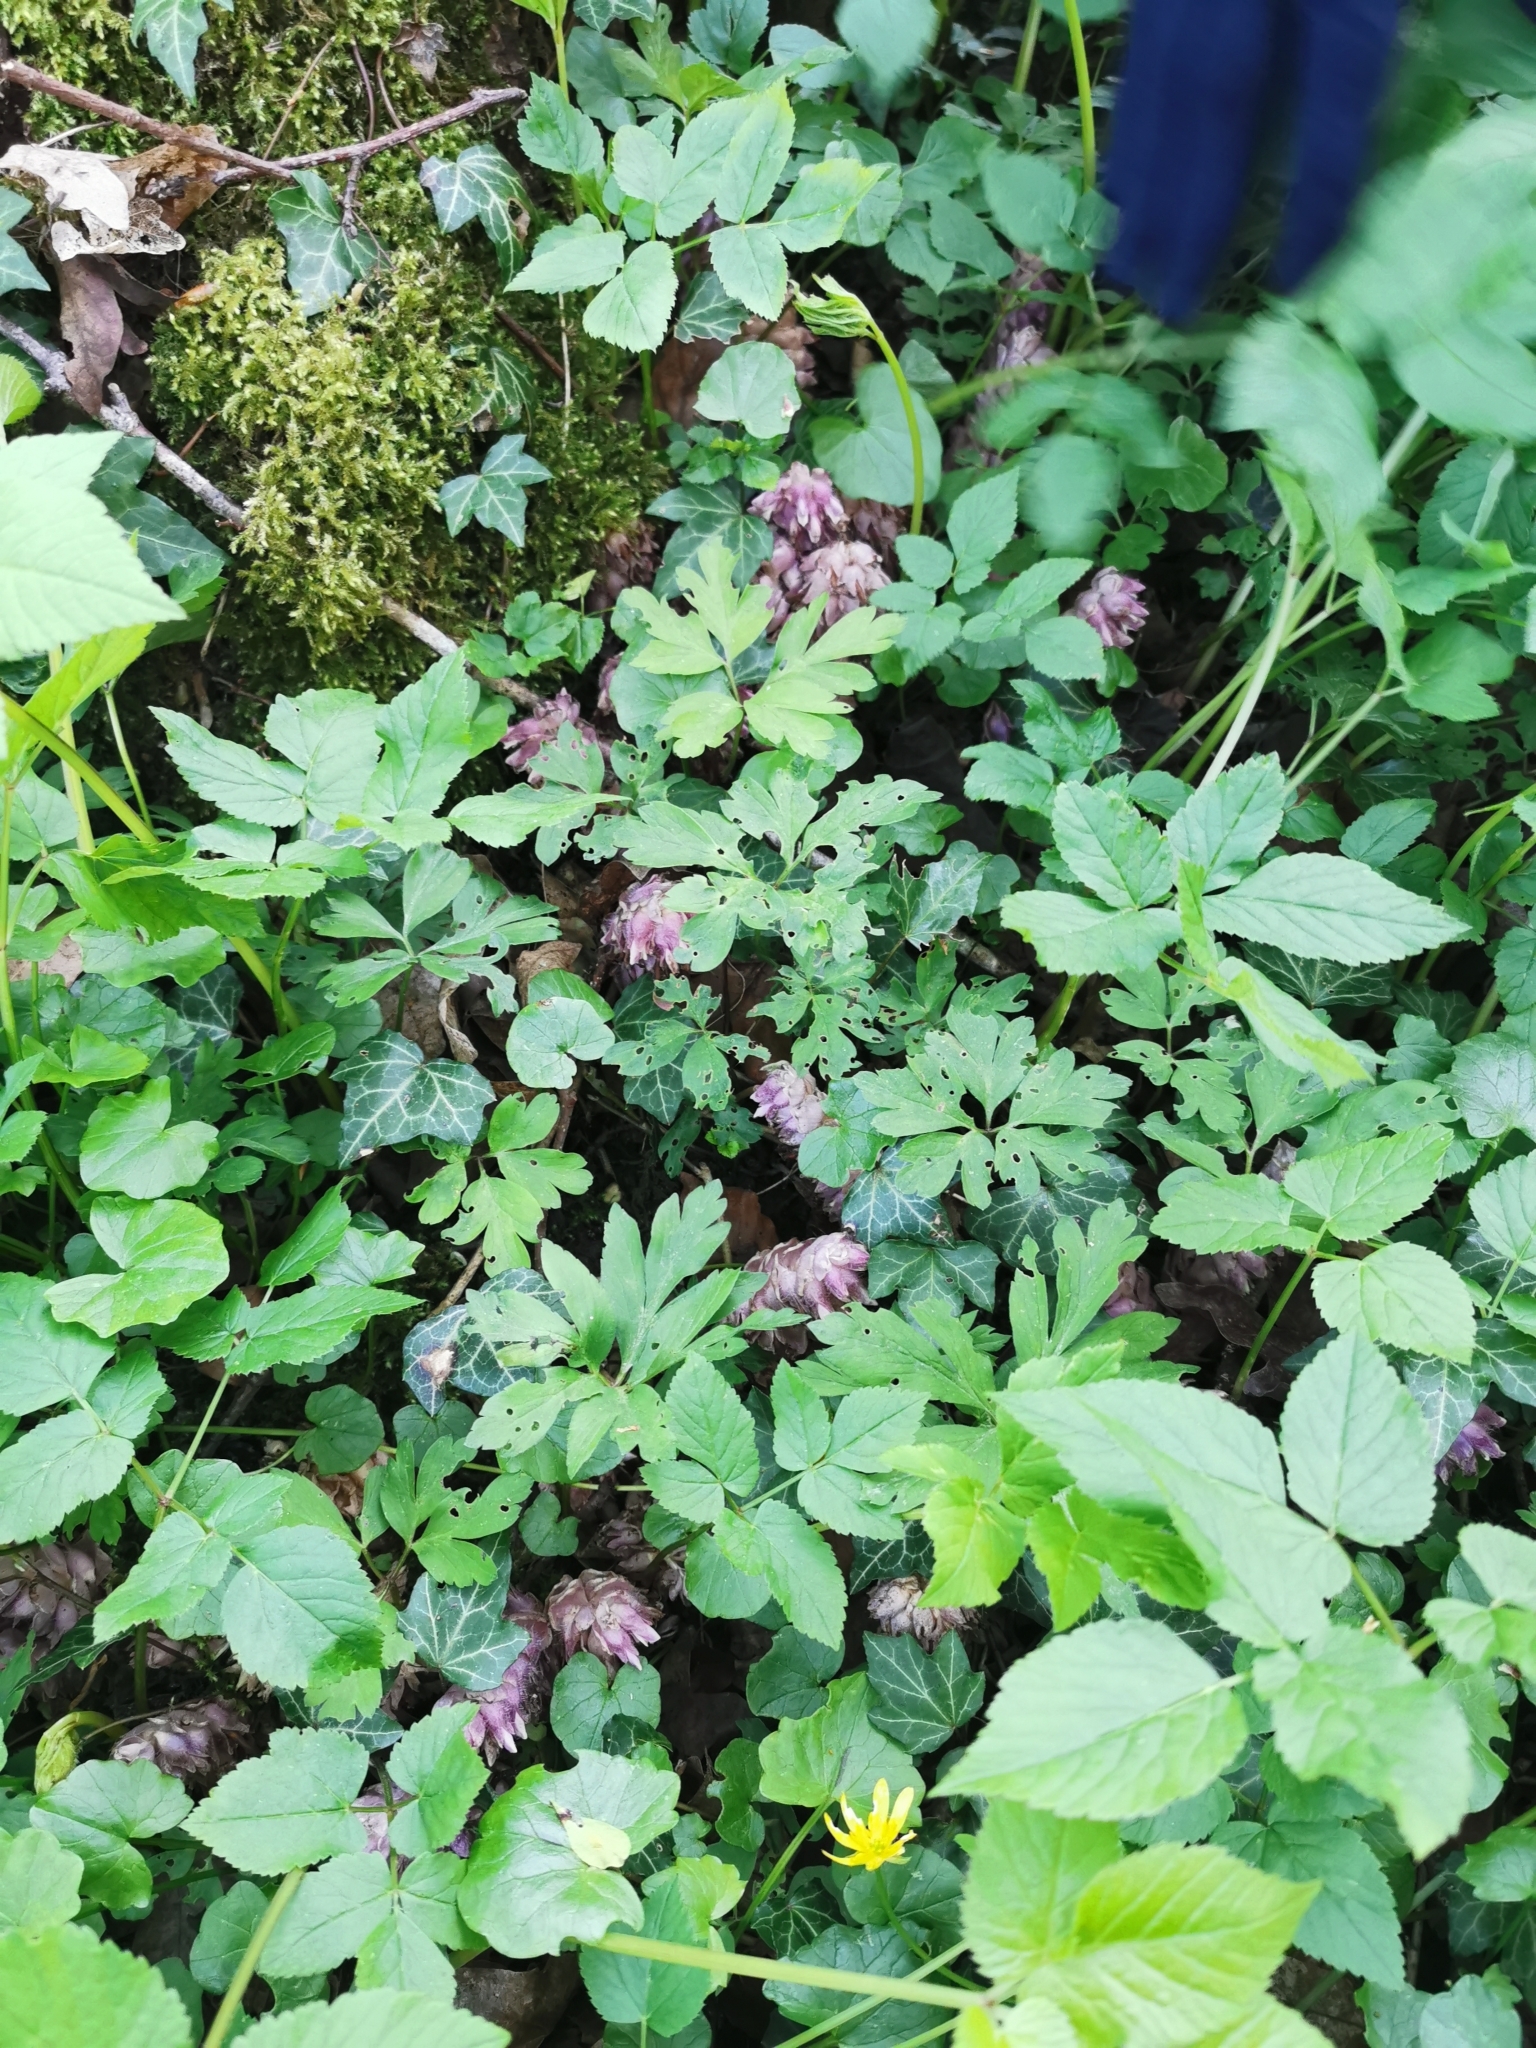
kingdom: Plantae
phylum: Tracheophyta
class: Magnoliopsida
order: Lamiales
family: Orobanchaceae
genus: Lathraea
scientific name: Lathraea squamaria
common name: Toothwort
